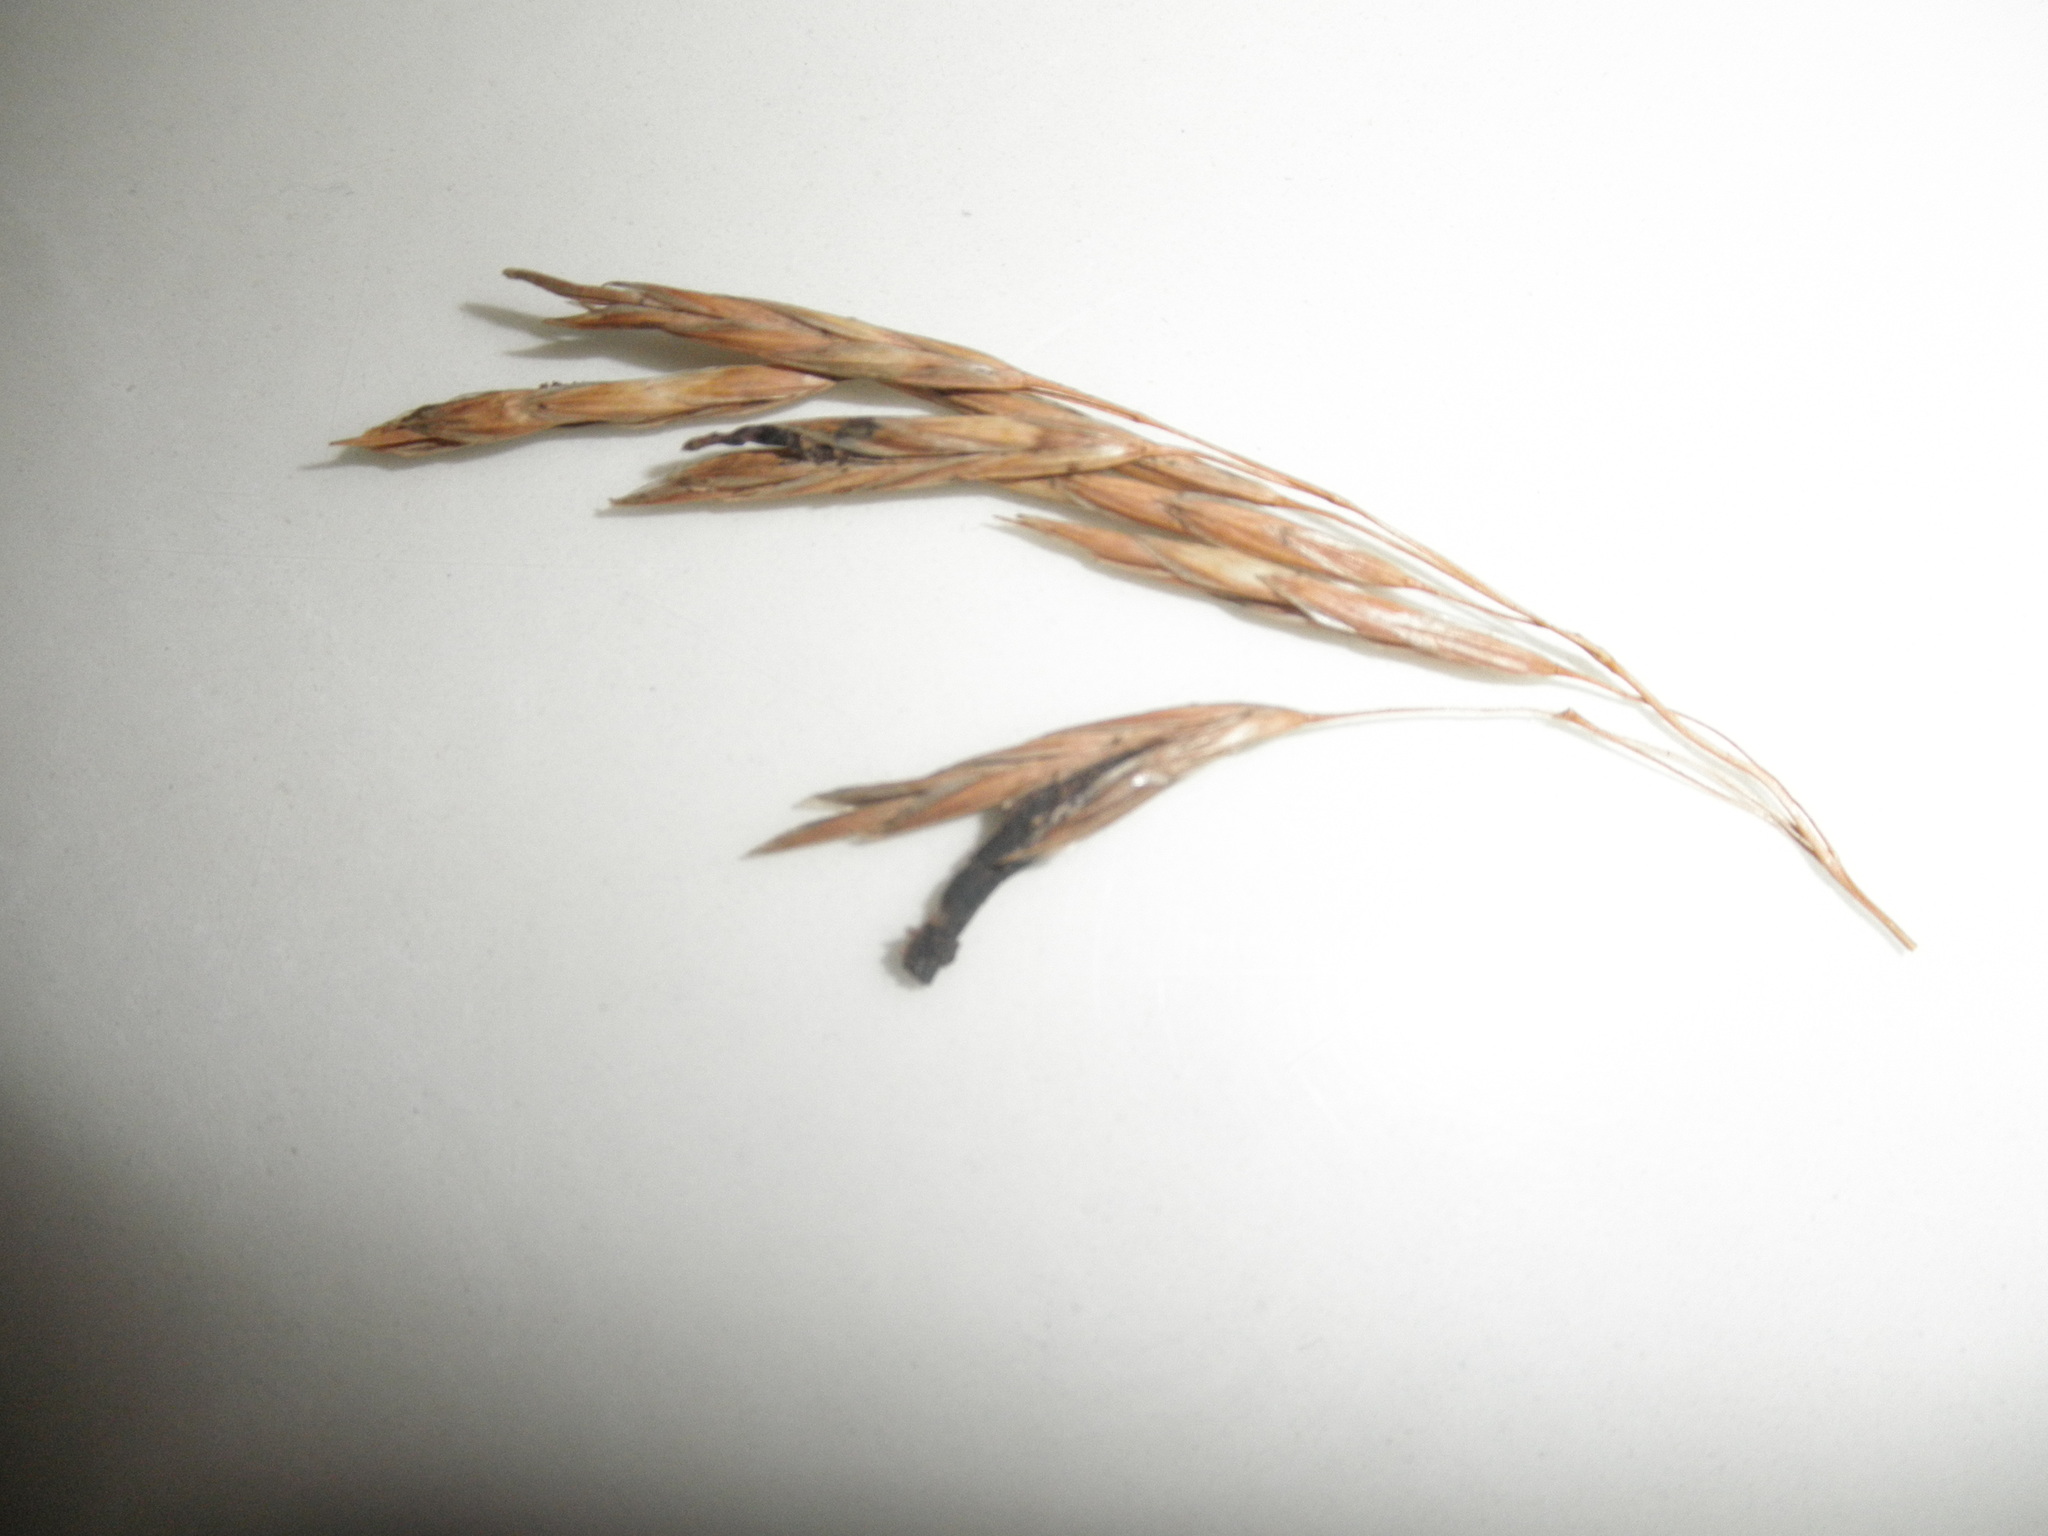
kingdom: Fungi
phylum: Ascomycota
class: Sordariomycetes
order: Hypocreales
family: Clavicipitaceae
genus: Claviceps
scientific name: Claviceps purpurea
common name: Rye ergot
